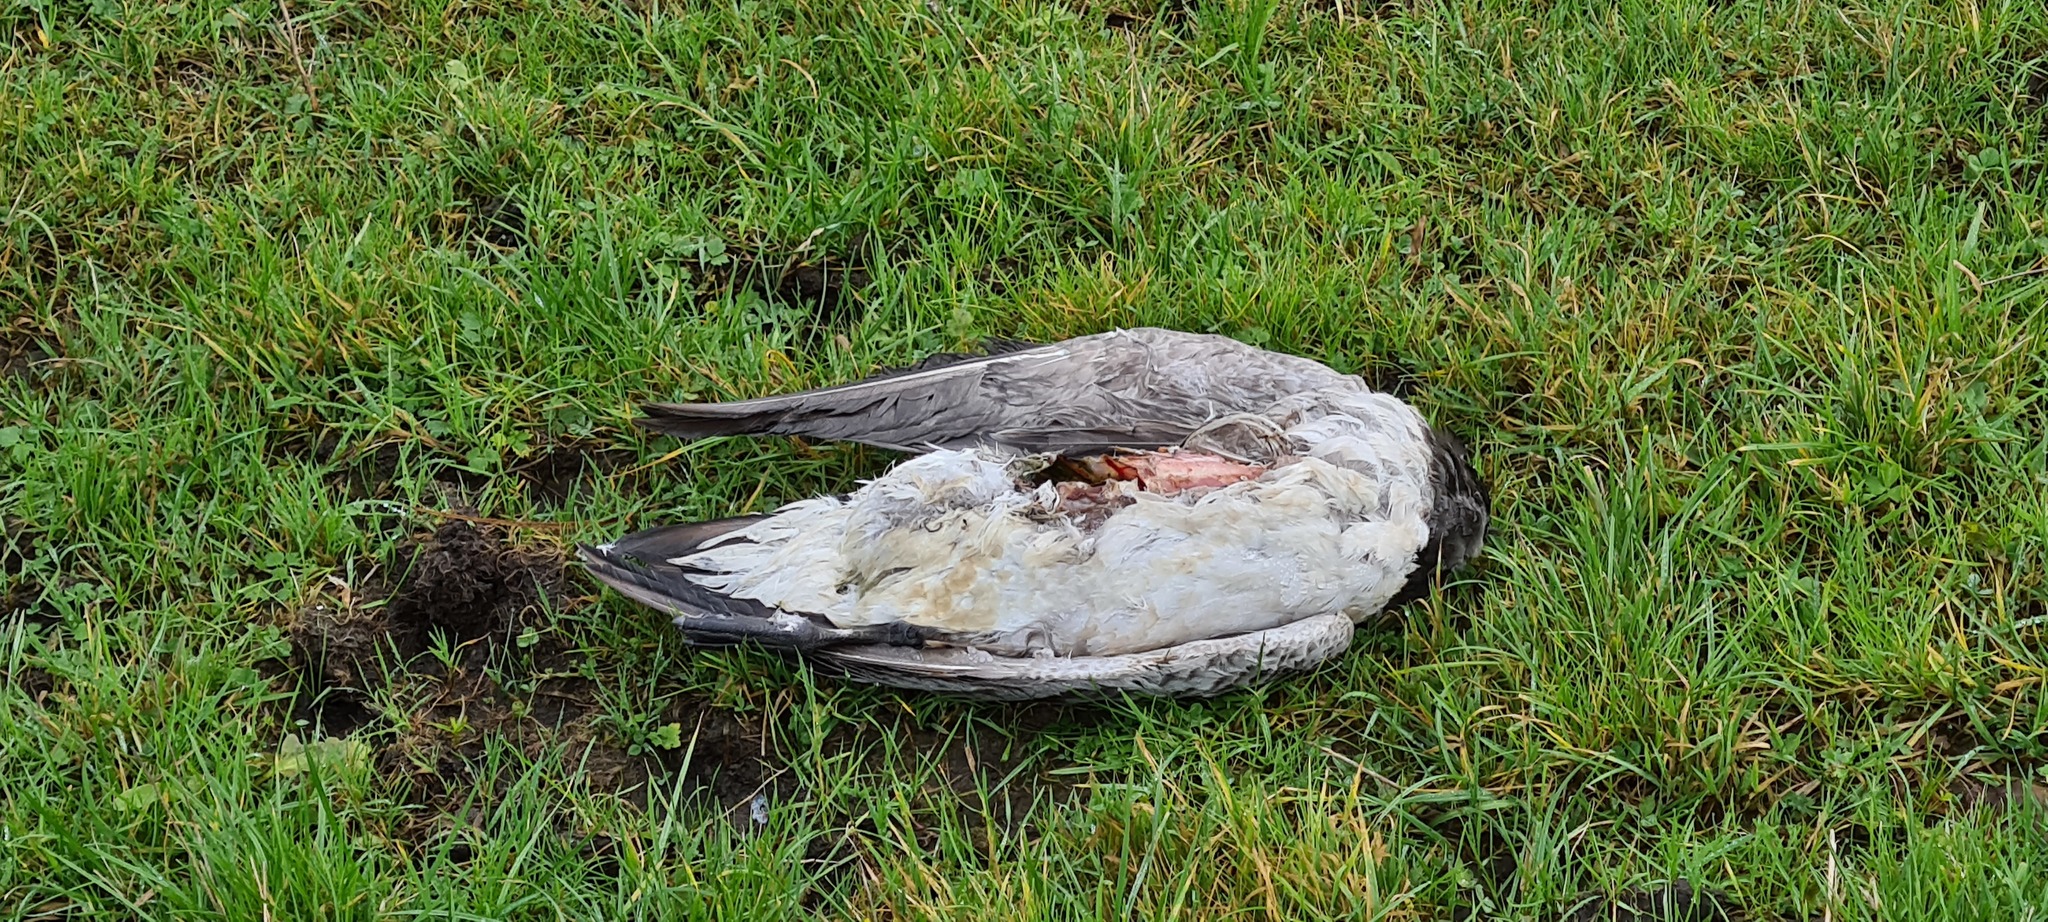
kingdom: Animalia
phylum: Chordata
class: Aves
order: Anseriformes
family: Anatidae
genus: Branta
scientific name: Branta leucopsis
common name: Barnacle goose
